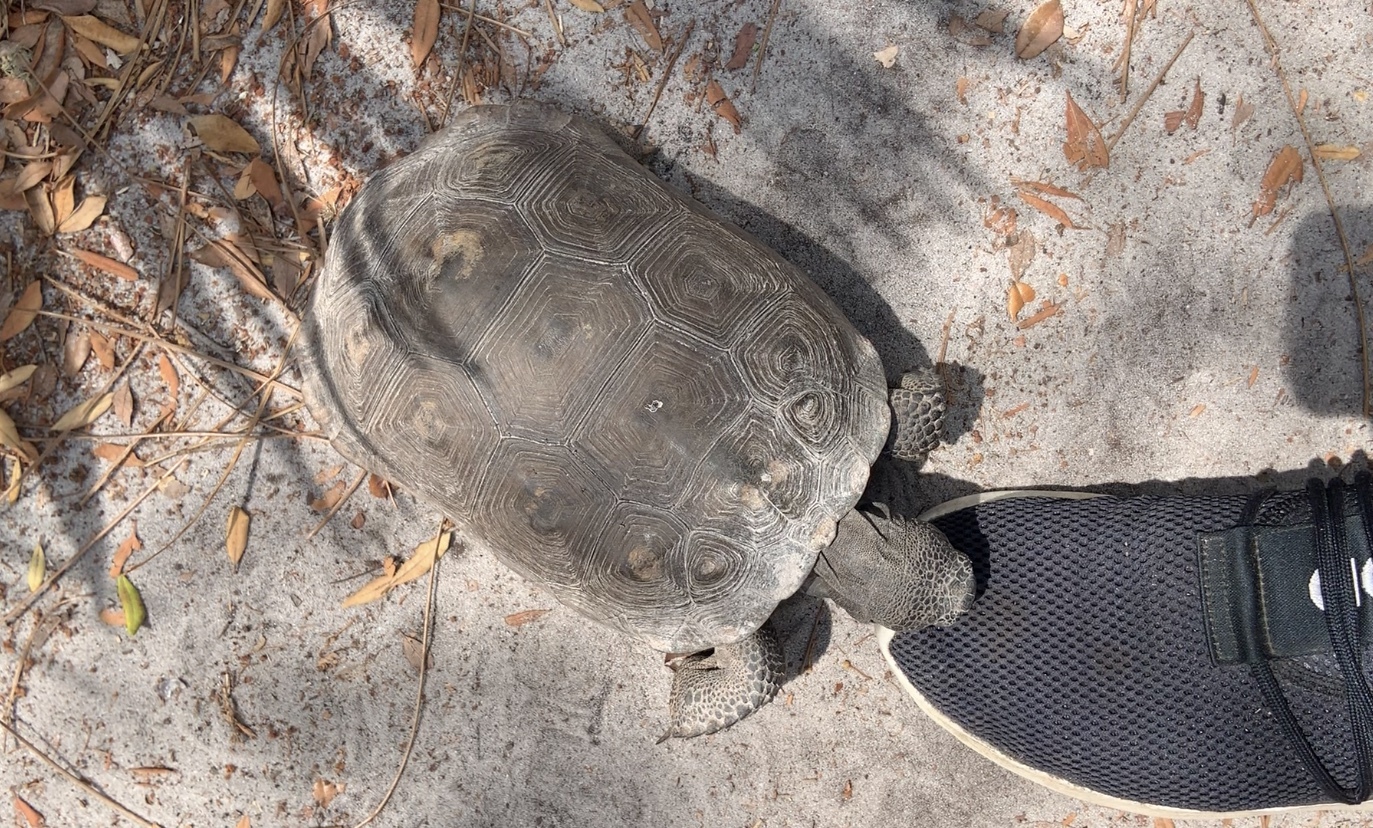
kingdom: Animalia
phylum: Chordata
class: Testudines
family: Testudinidae
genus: Gopherus
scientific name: Gopherus polyphemus
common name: Florida gopher tortoise
